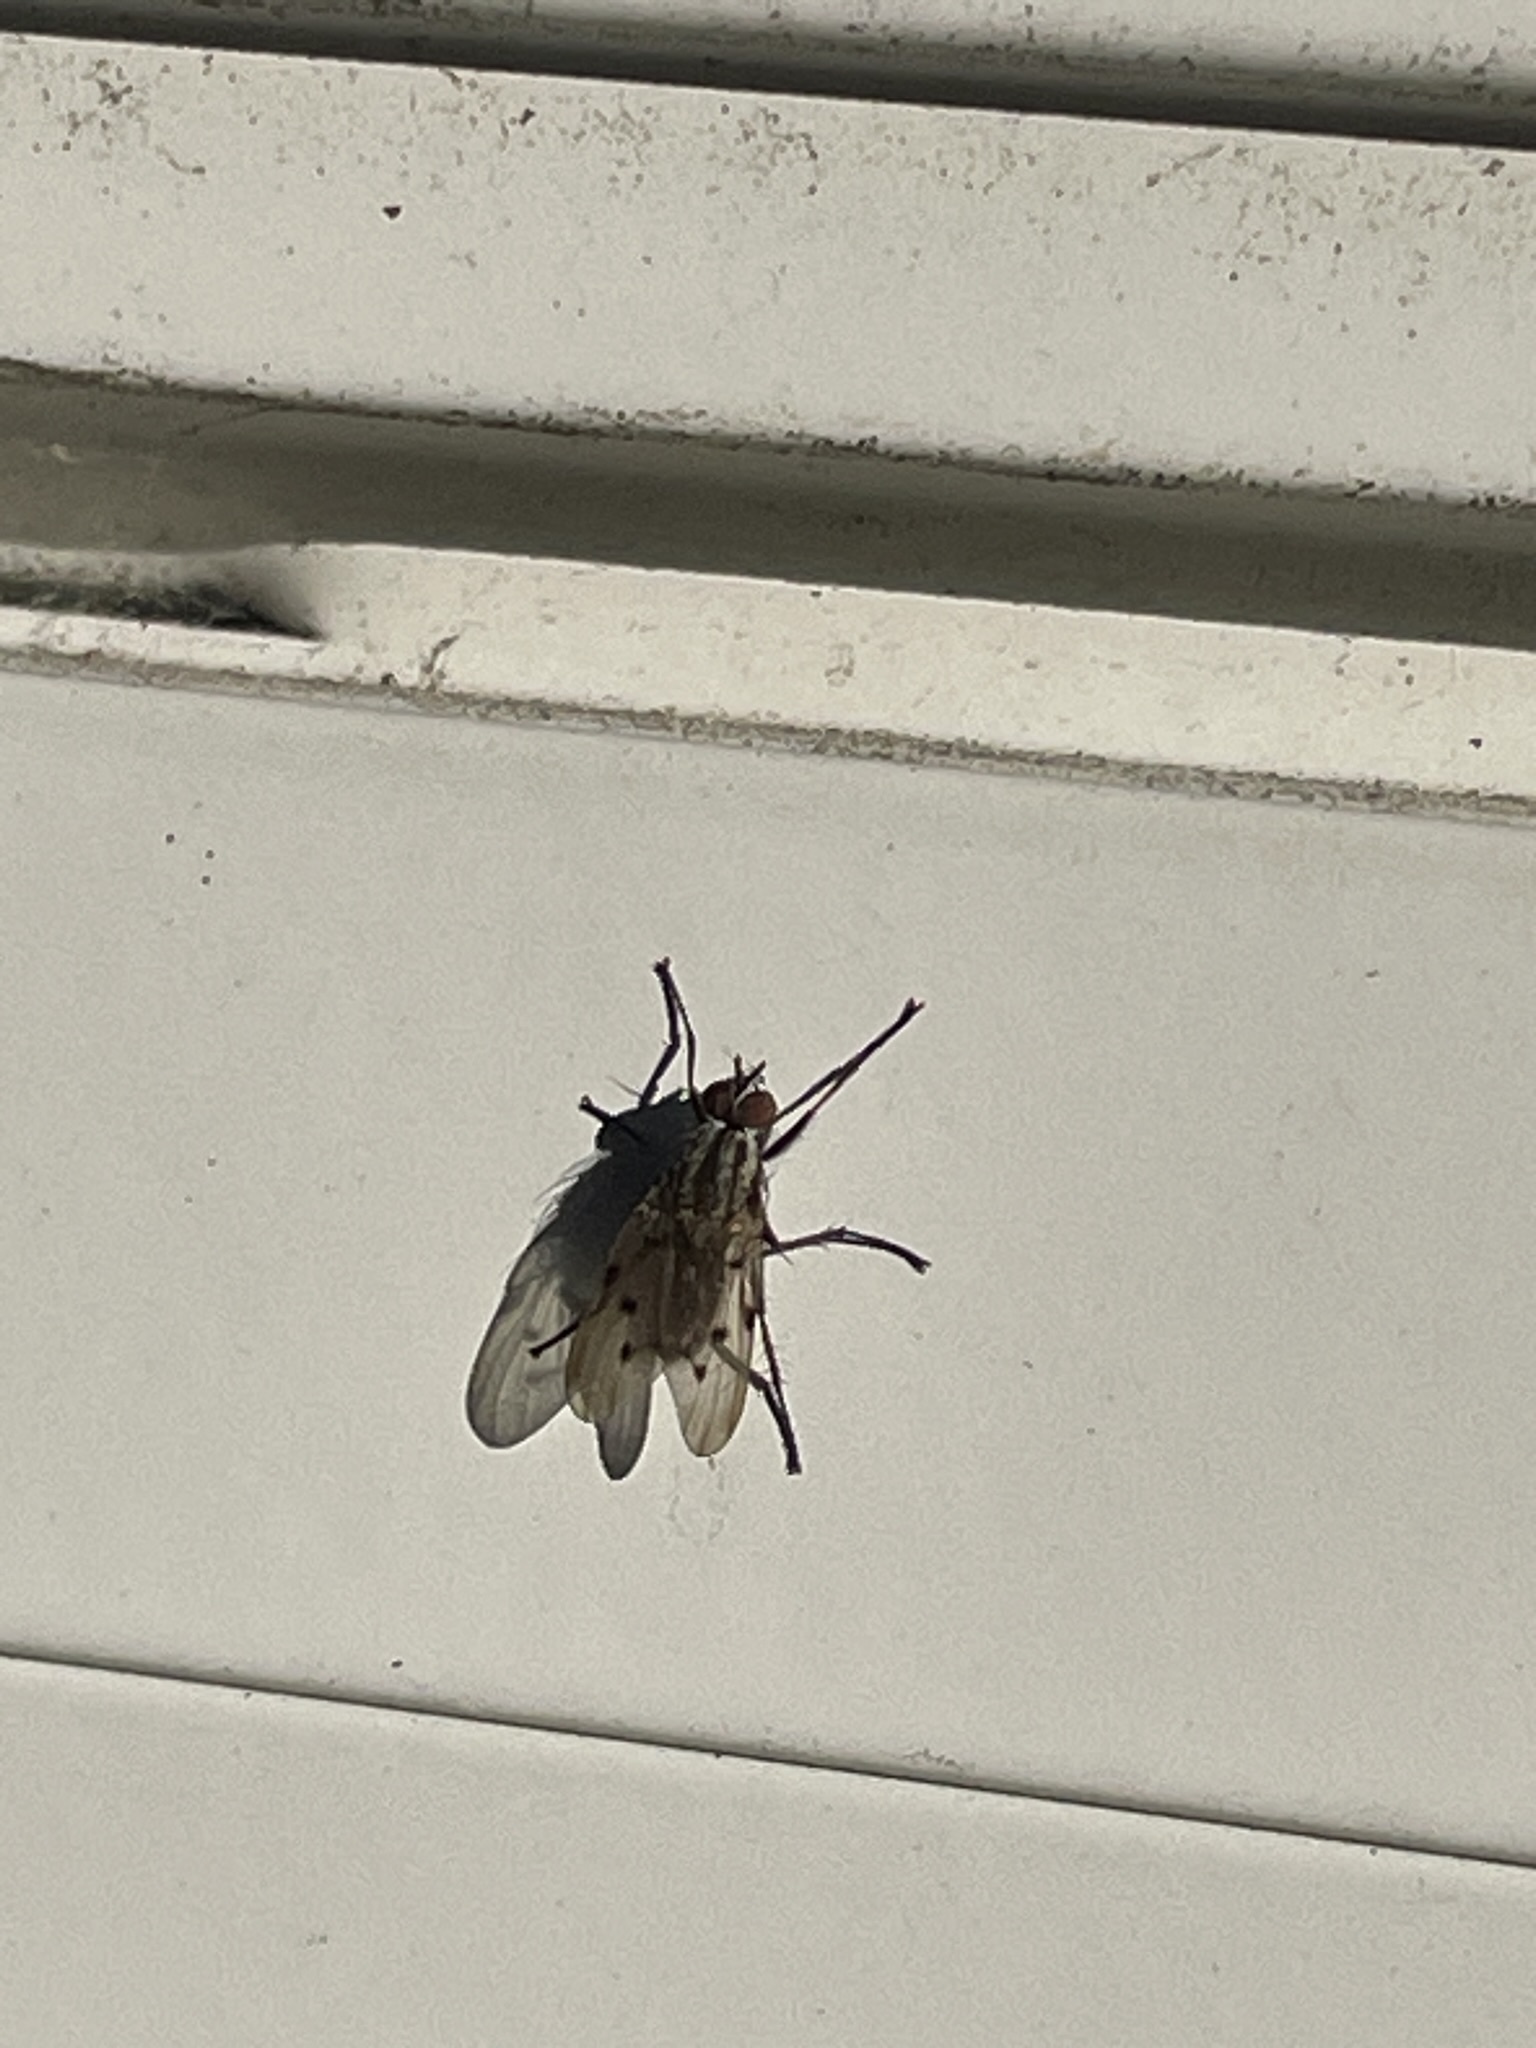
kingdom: Animalia
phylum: Arthropoda
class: Insecta
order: Diptera
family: Anthomyiidae
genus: Anthomyia
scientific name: Anthomyia punctipennis
